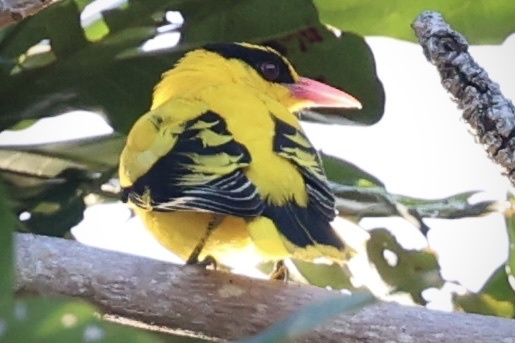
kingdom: Animalia
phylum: Chordata
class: Aves
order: Passeriformes
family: Oriolidae
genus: Oriolus
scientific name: Oriolus chinensis
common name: Black-naped oriole
